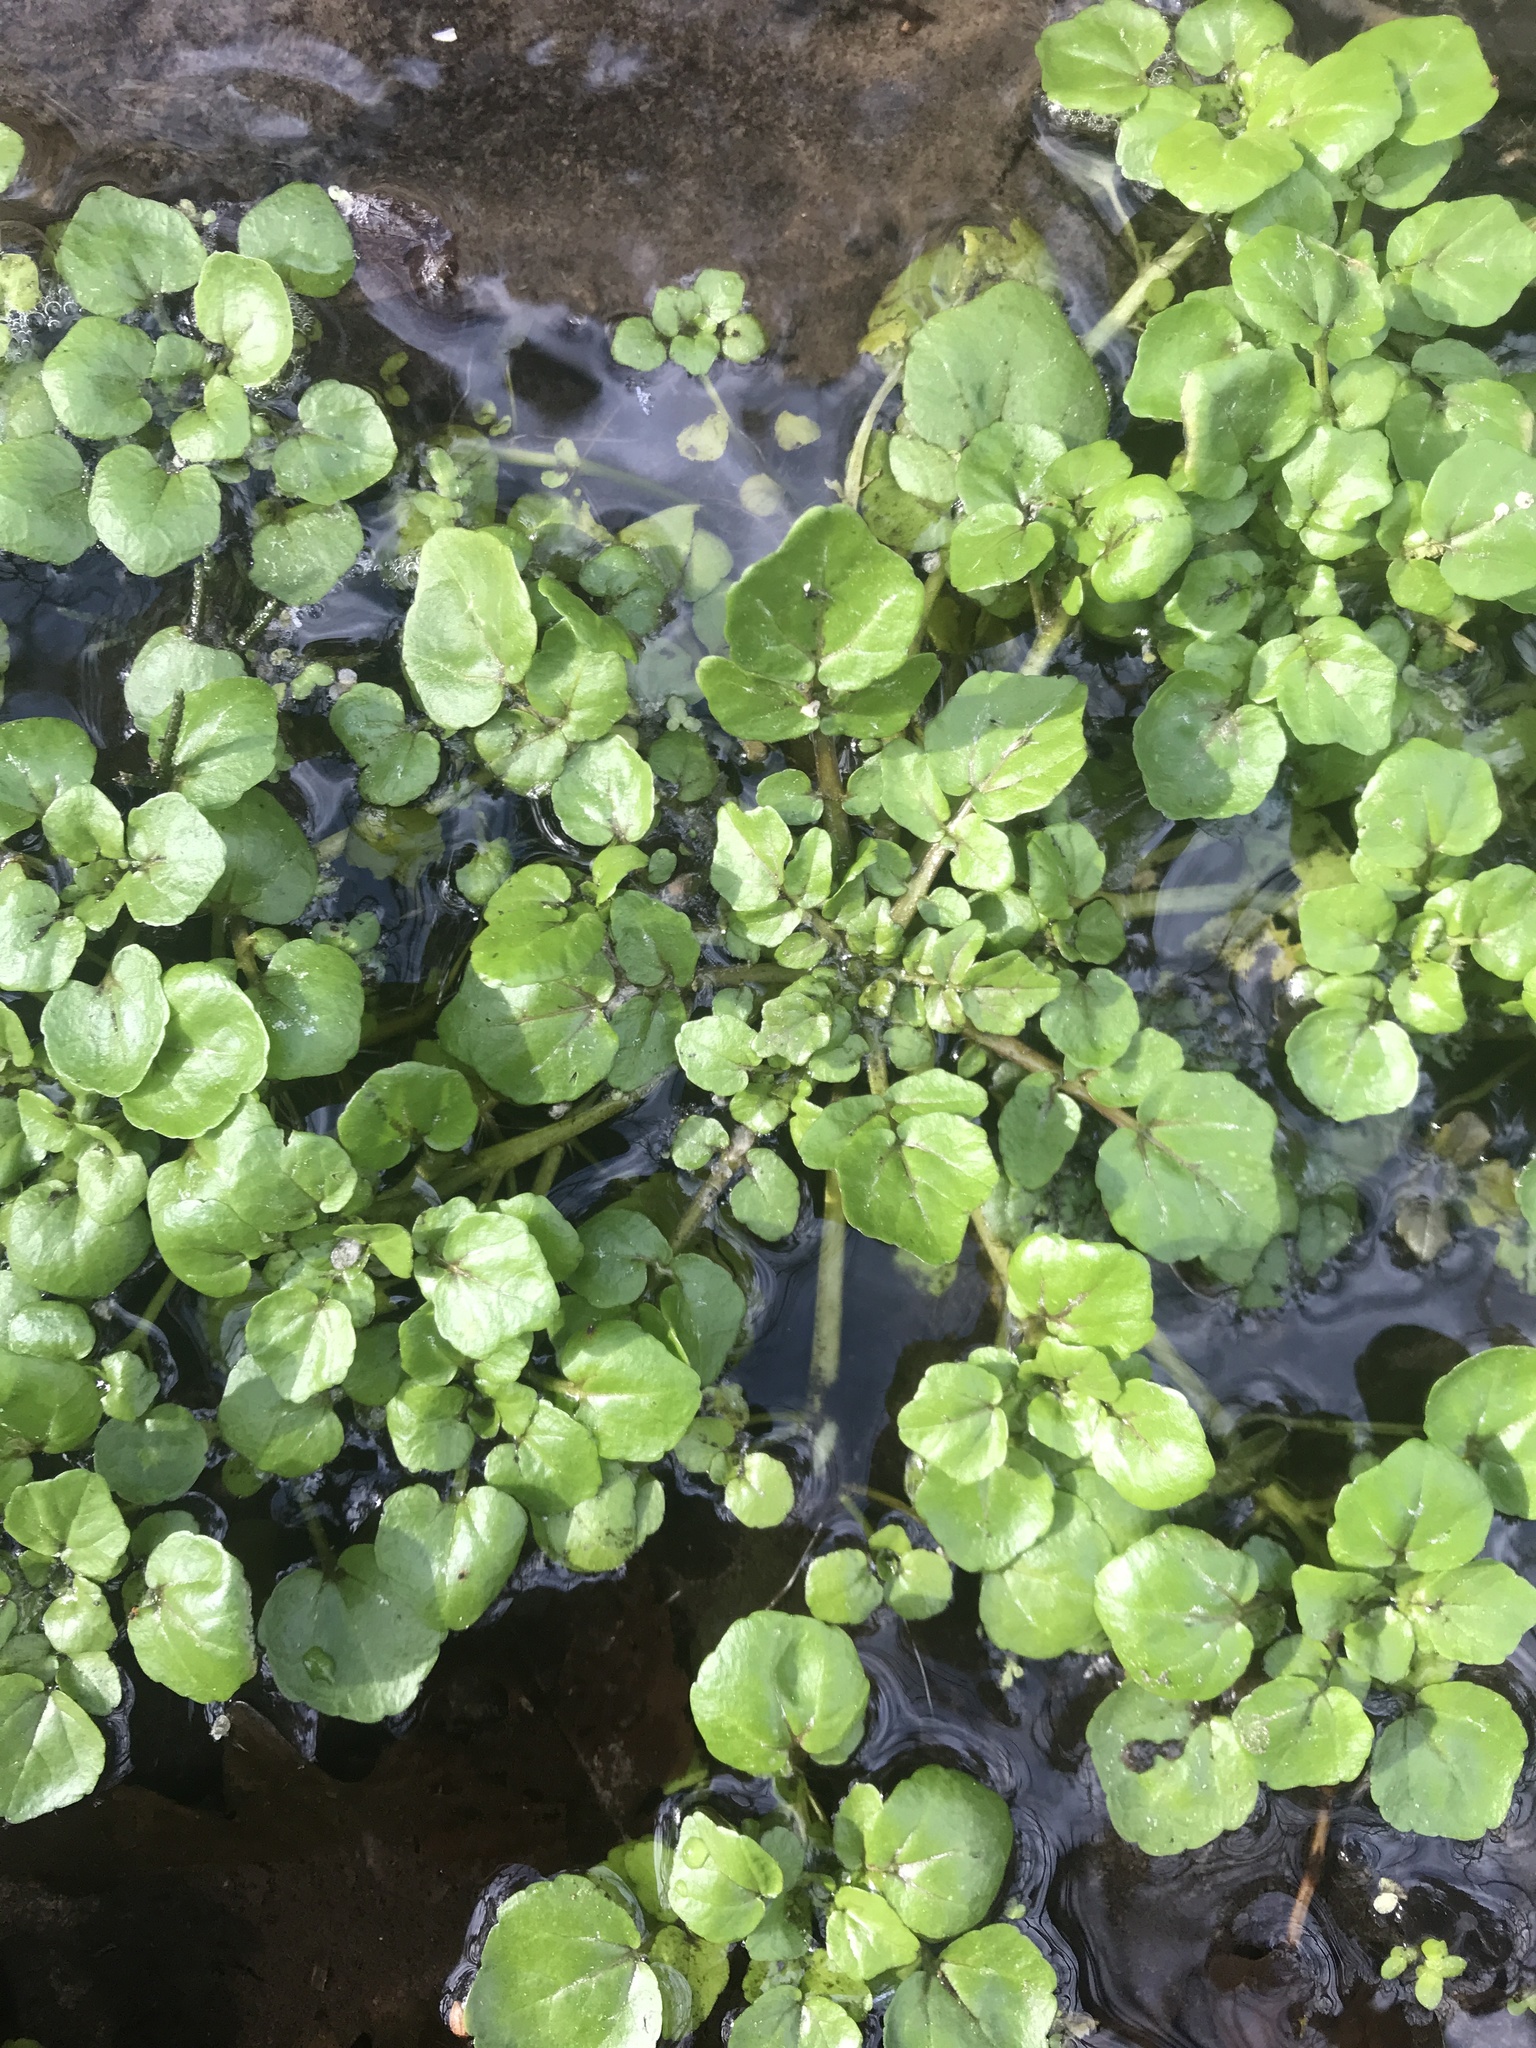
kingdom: Plantae
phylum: Tracheophyta
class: Magnoliopsida
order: Brassicales
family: Brassicaceae
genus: Nasturtium
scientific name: Nasturtium officinale
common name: Watercress
